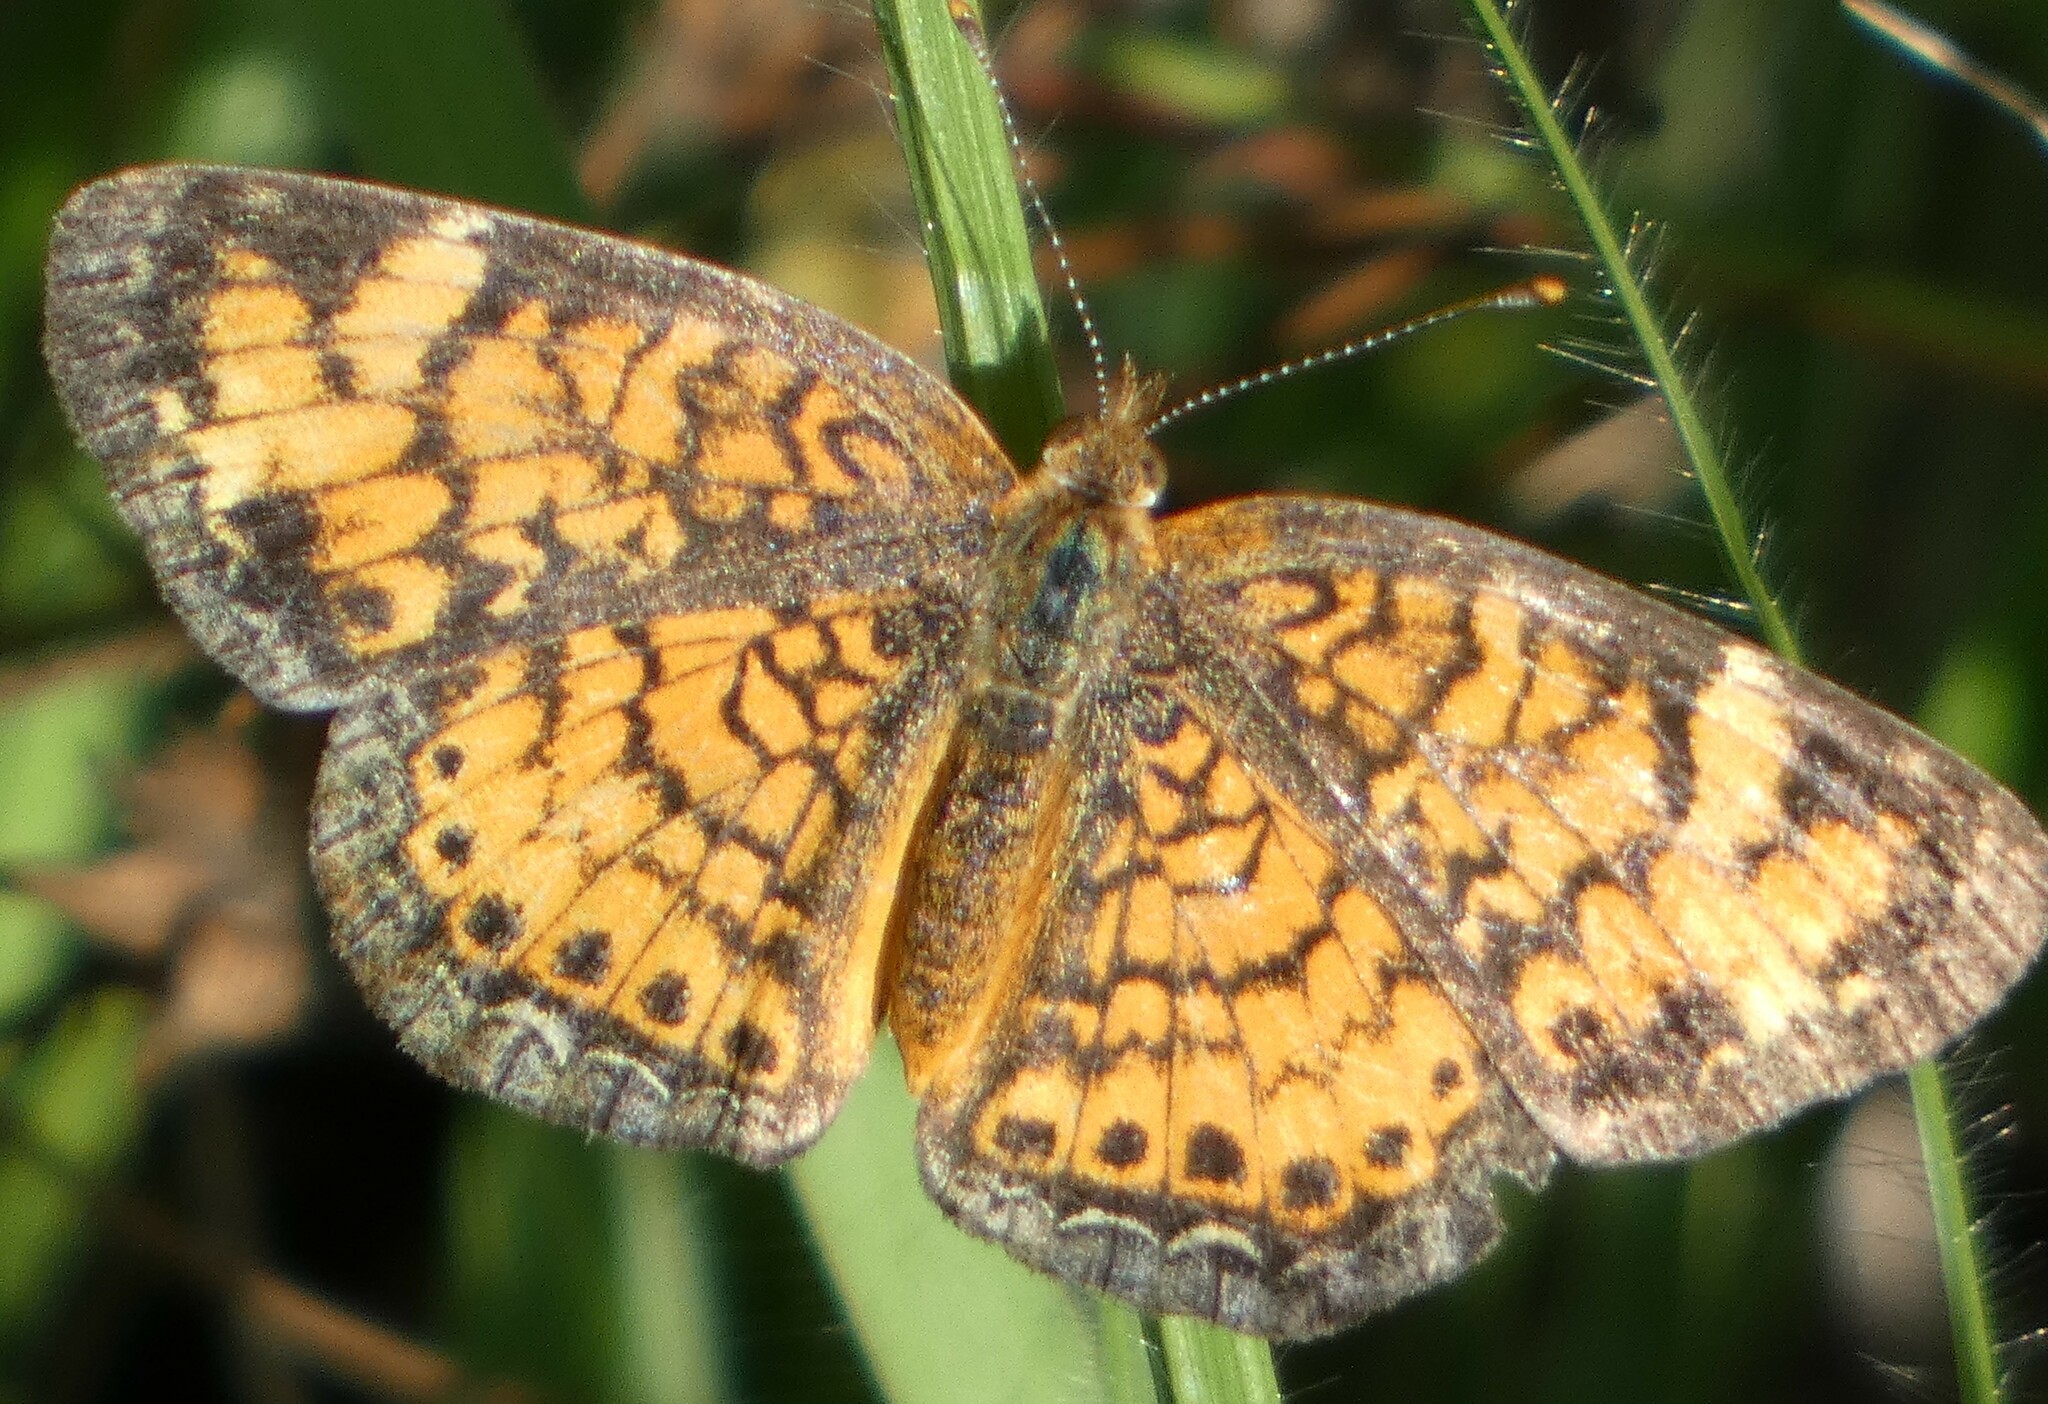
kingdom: Animalia
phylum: Arthropoda
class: Insecta
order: Lepidoptera
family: Nymphalidae
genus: Phyciodes
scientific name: Phyciodes tharos
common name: Pearl crescent
